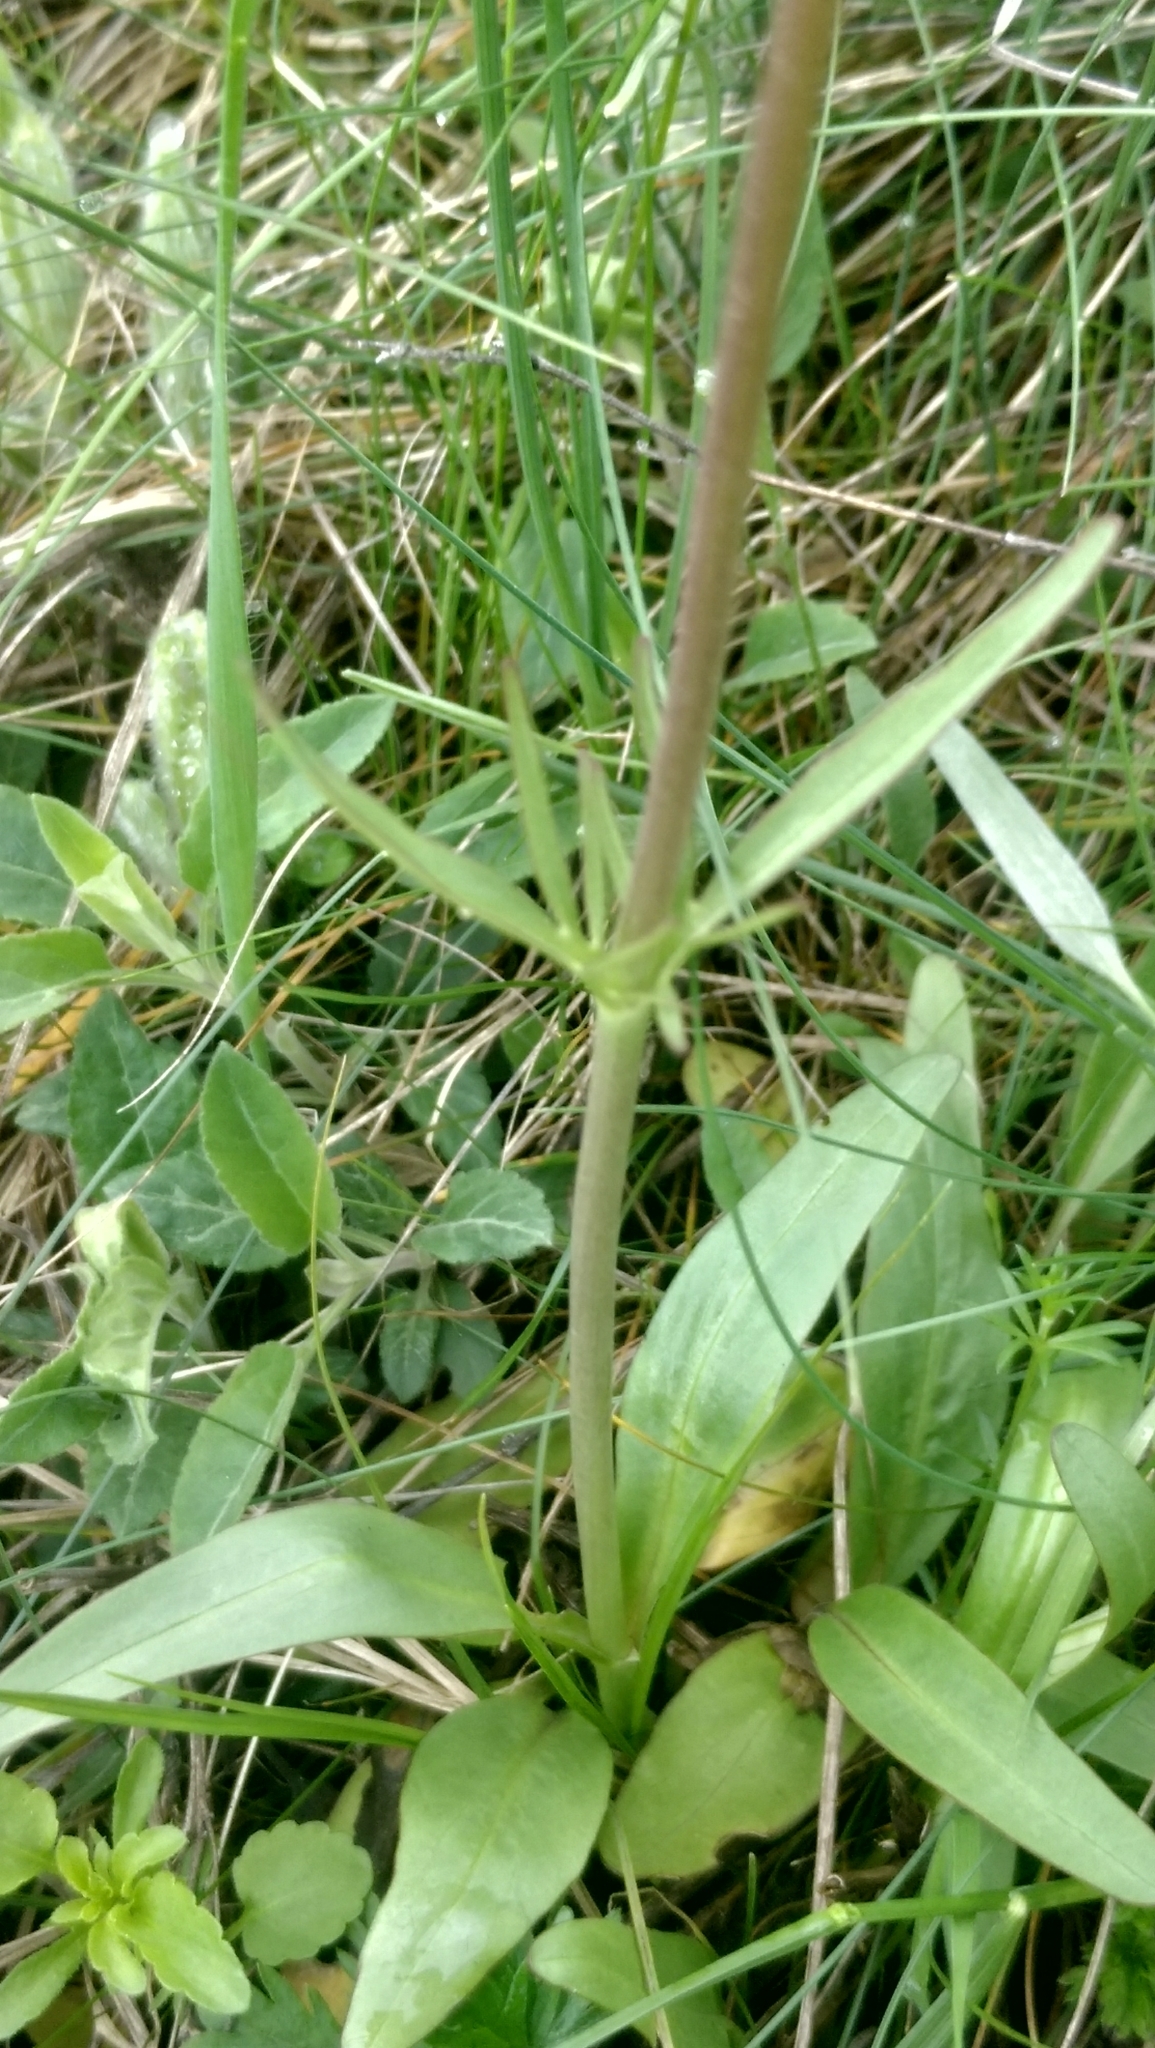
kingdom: Plantae
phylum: Tracheophyta
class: Magnoliopsida
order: Dipsacales
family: Caprifoliaceae
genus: Valeriana
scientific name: Valeriana tuberosa
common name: Tuberous valerian
